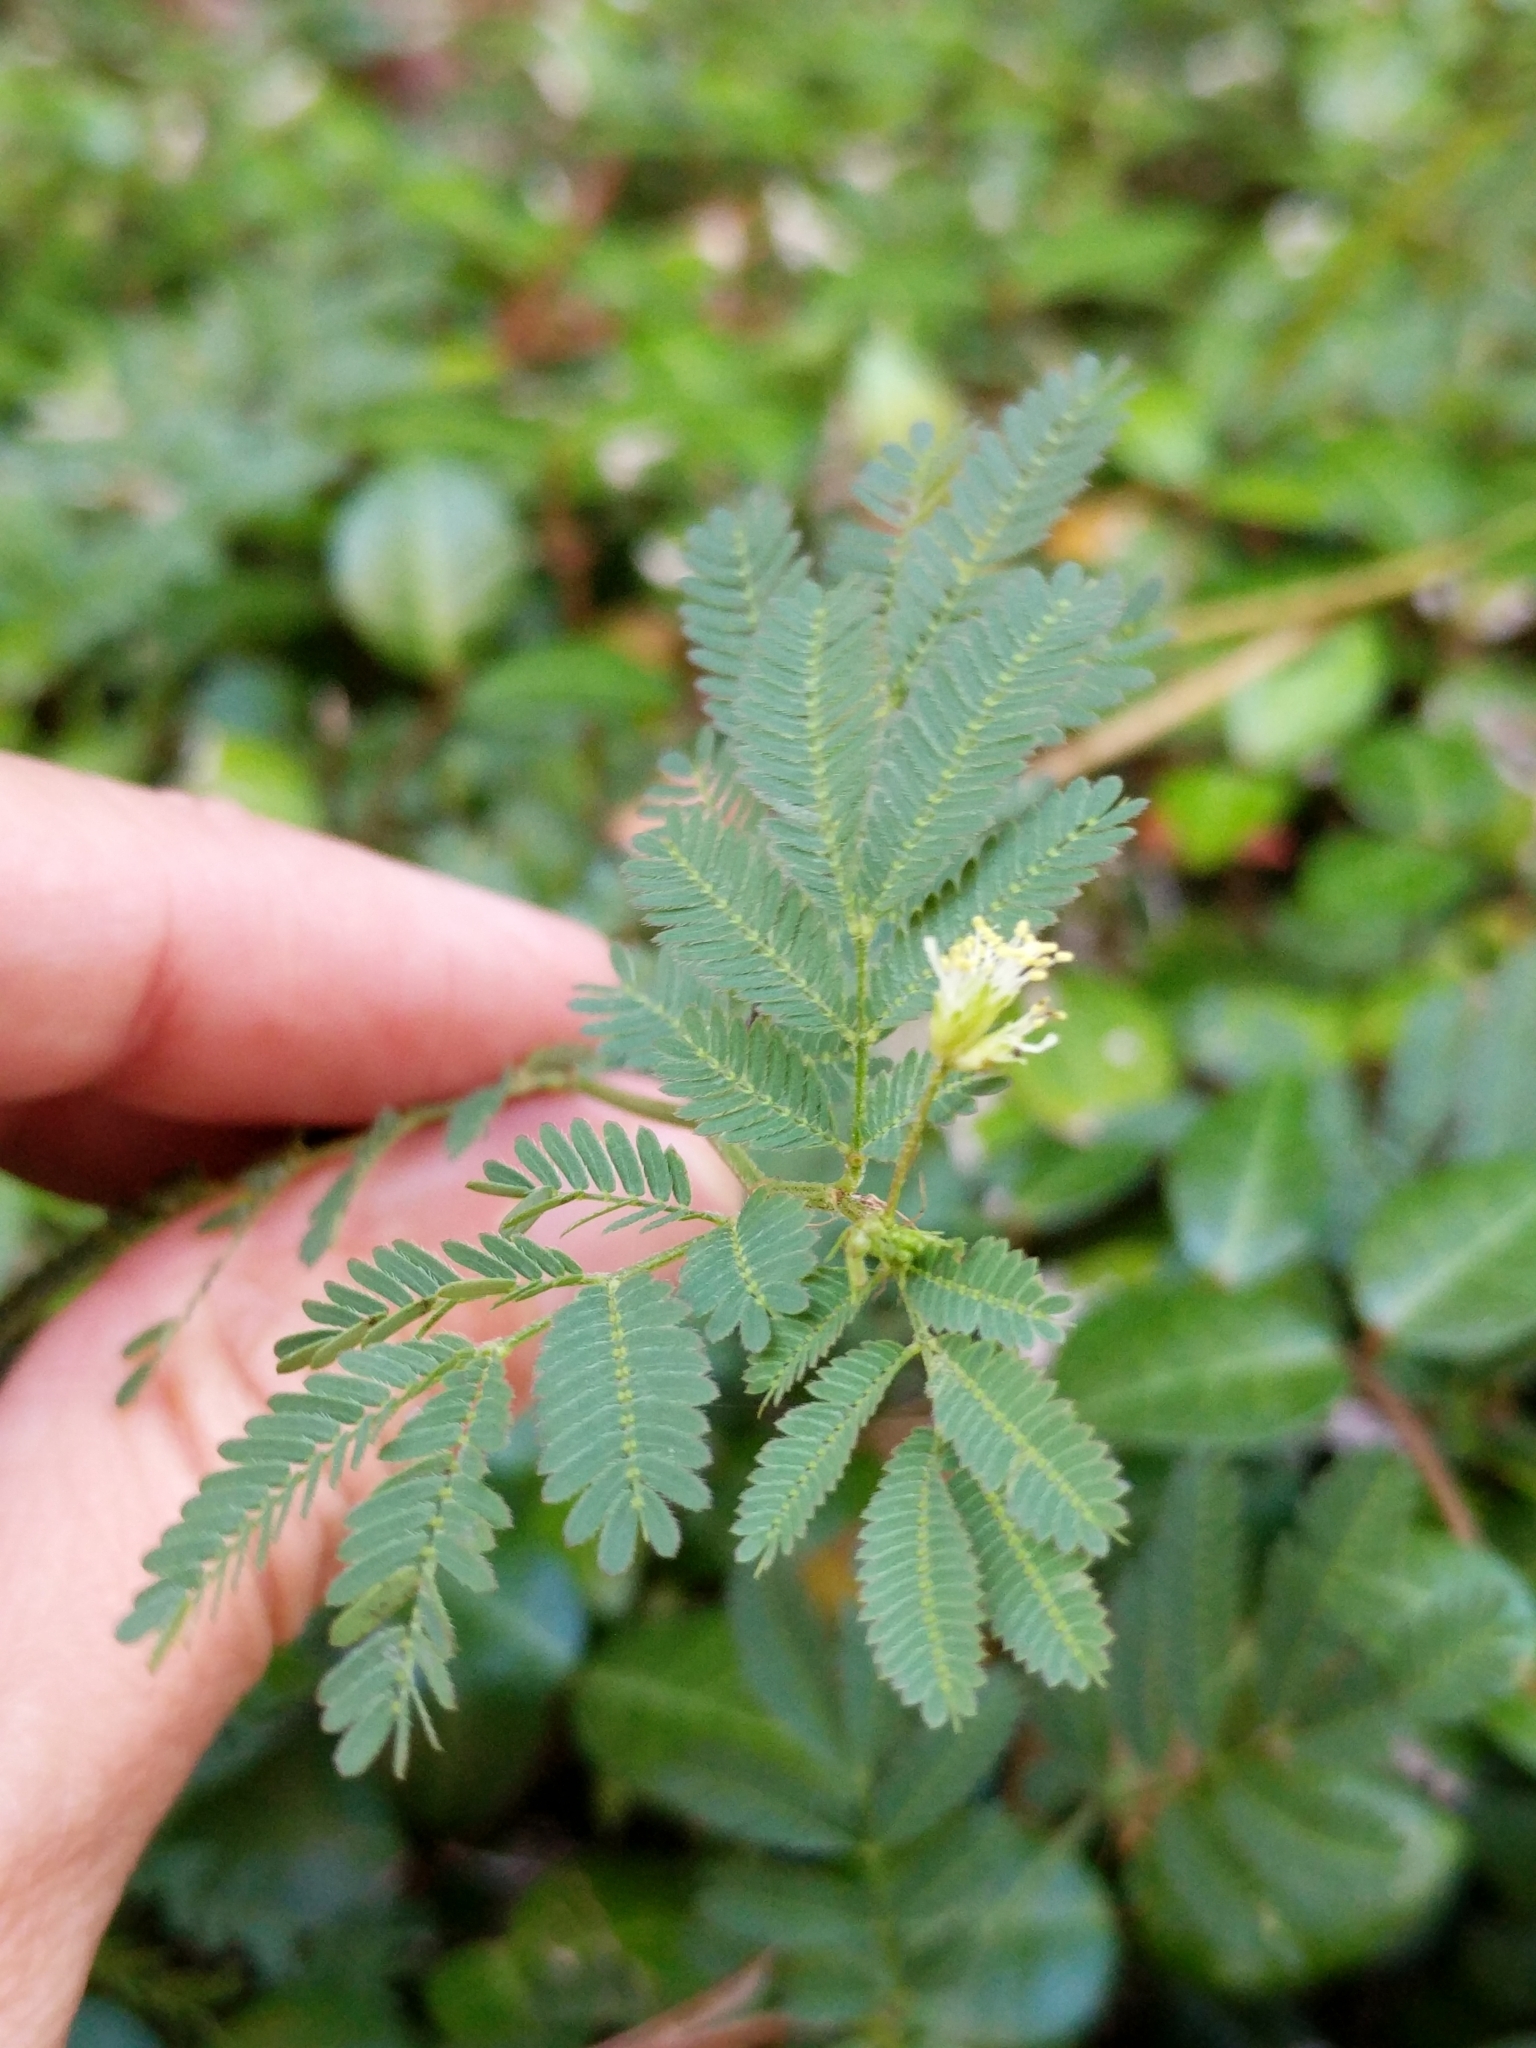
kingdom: Plantae
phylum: Tracheophyta
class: Magnoliopsida
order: Fabales
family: Fabaceae
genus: Desmanthus
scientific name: Desmanthus virgatus
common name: Wild tantan
